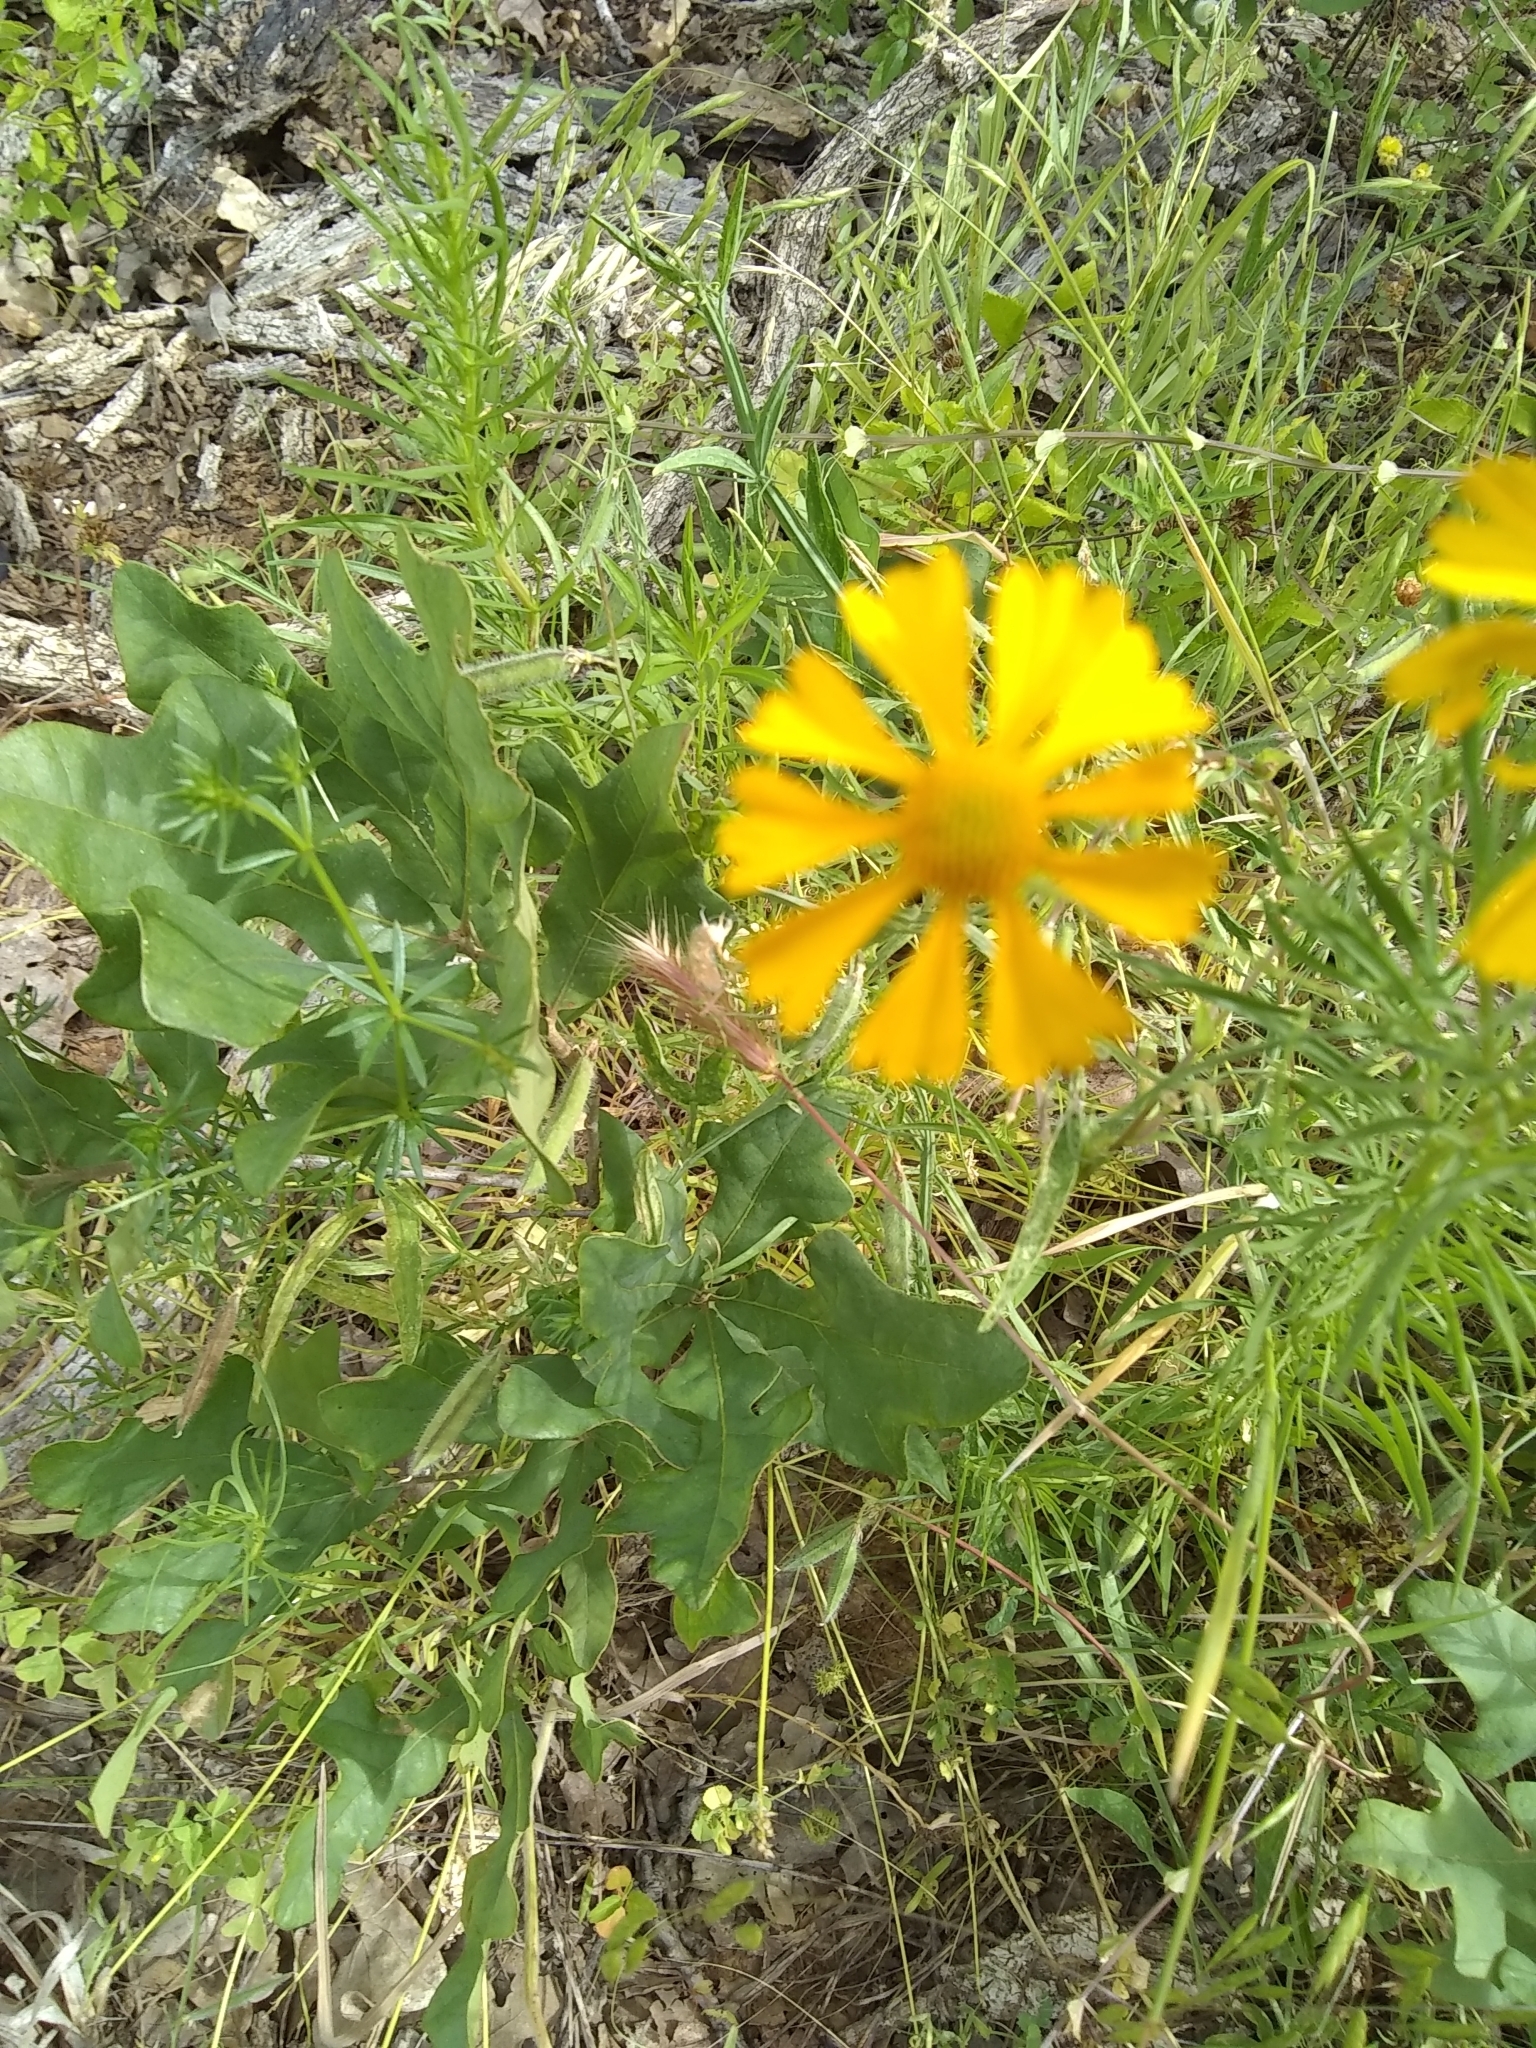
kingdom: Plantae
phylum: Tracheophyta
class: Magnoliopsida
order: Asterales
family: Asteraceae
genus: Helenium
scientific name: Helenium amarum
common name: Bitter sneezeweed
